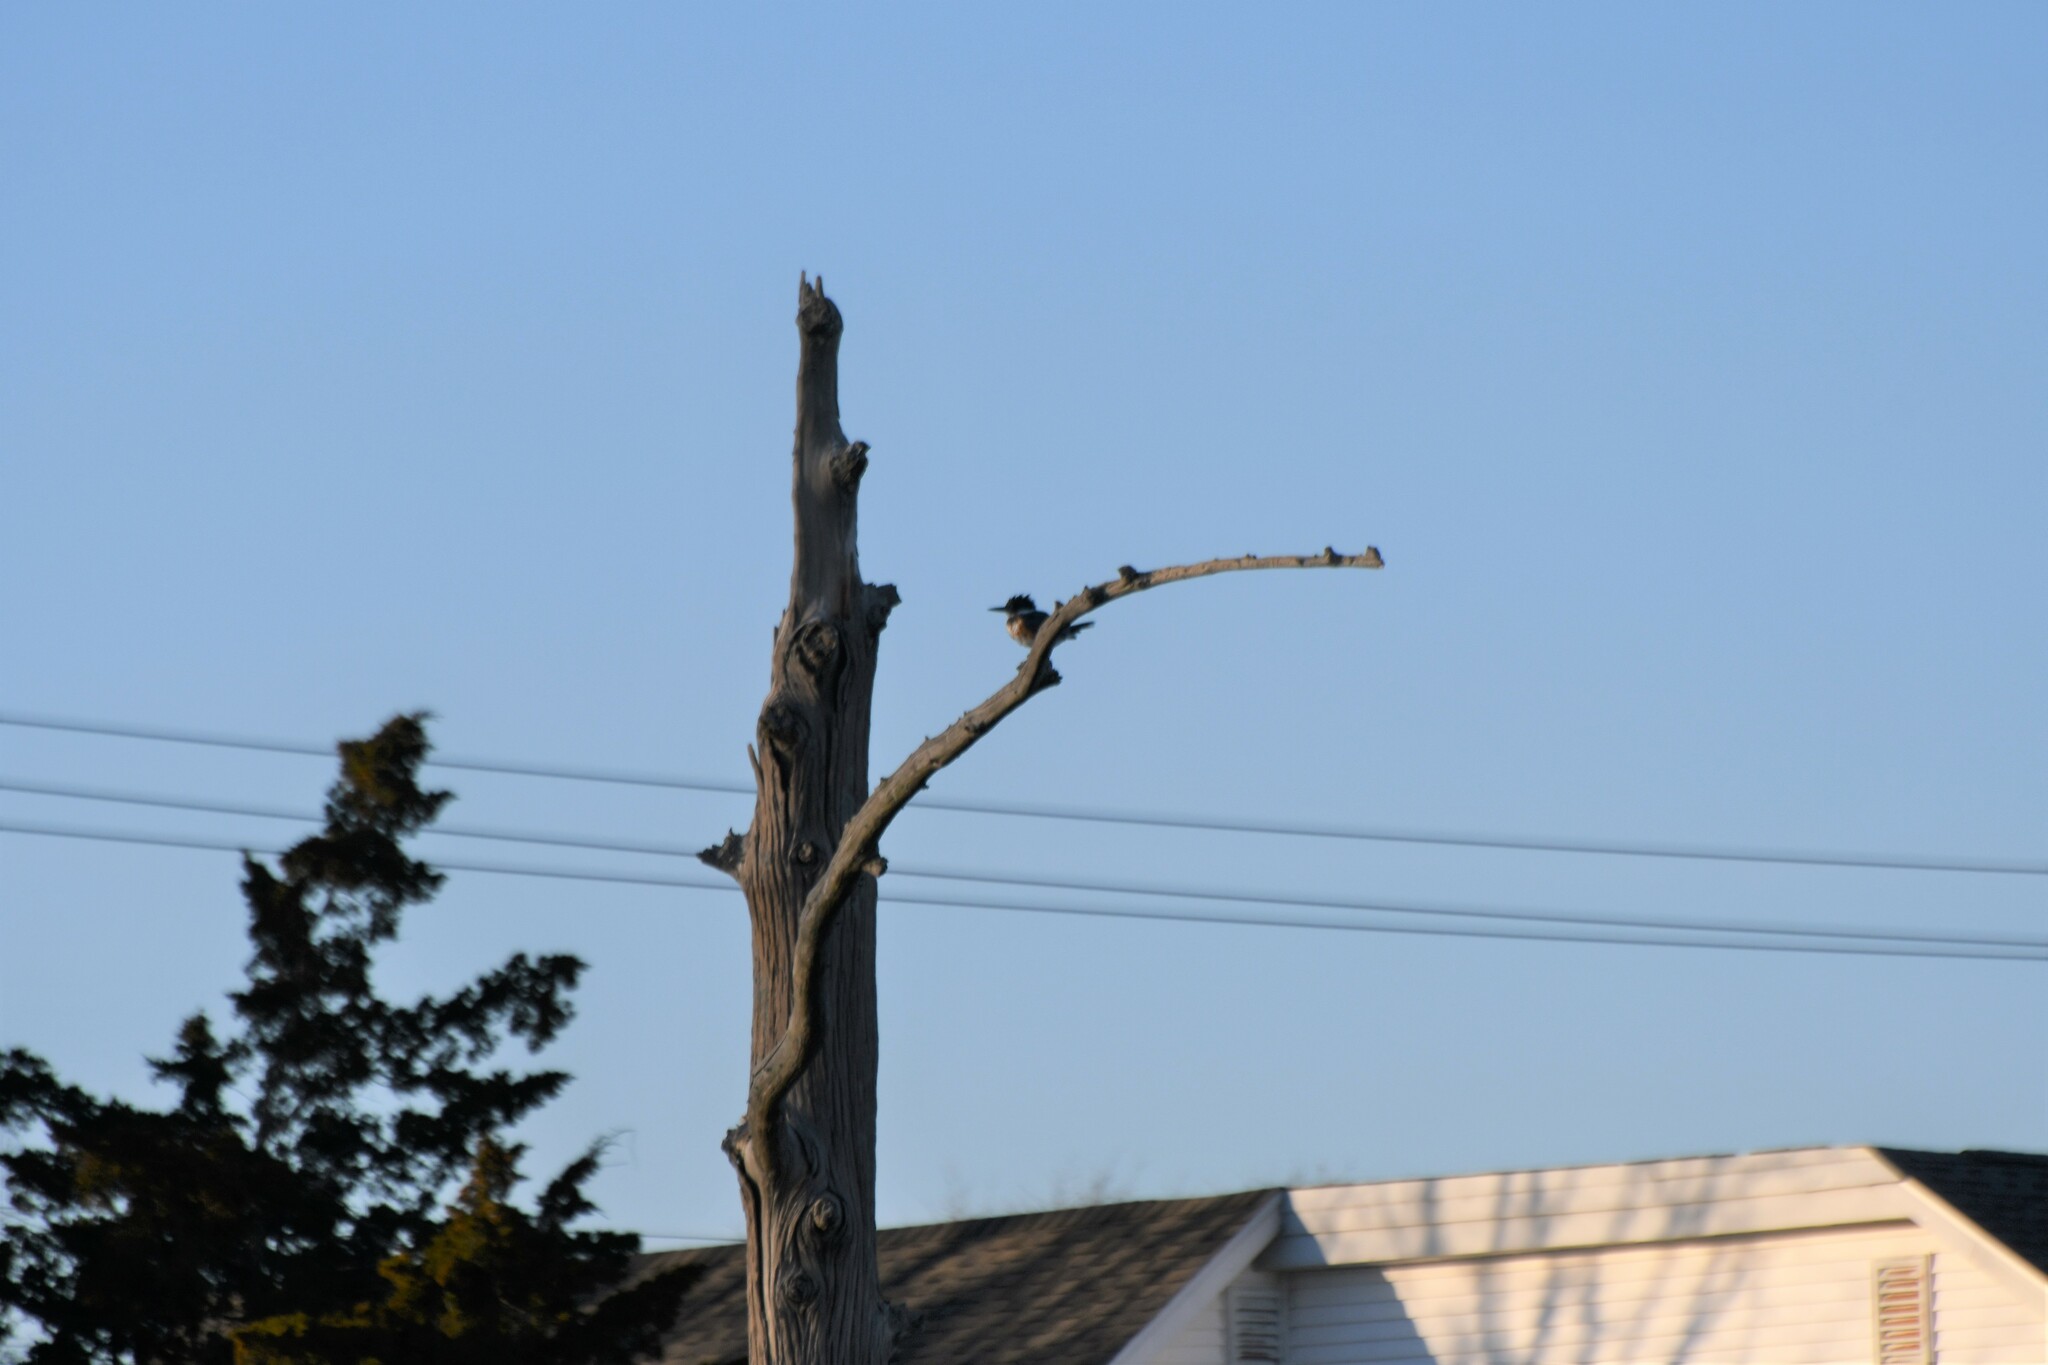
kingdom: Animalia
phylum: Chordata
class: Aves
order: Coraciiformes
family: Alcedinidae
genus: Megaceryle
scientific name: Megaceryle alcyon
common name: Belted kingfisher
